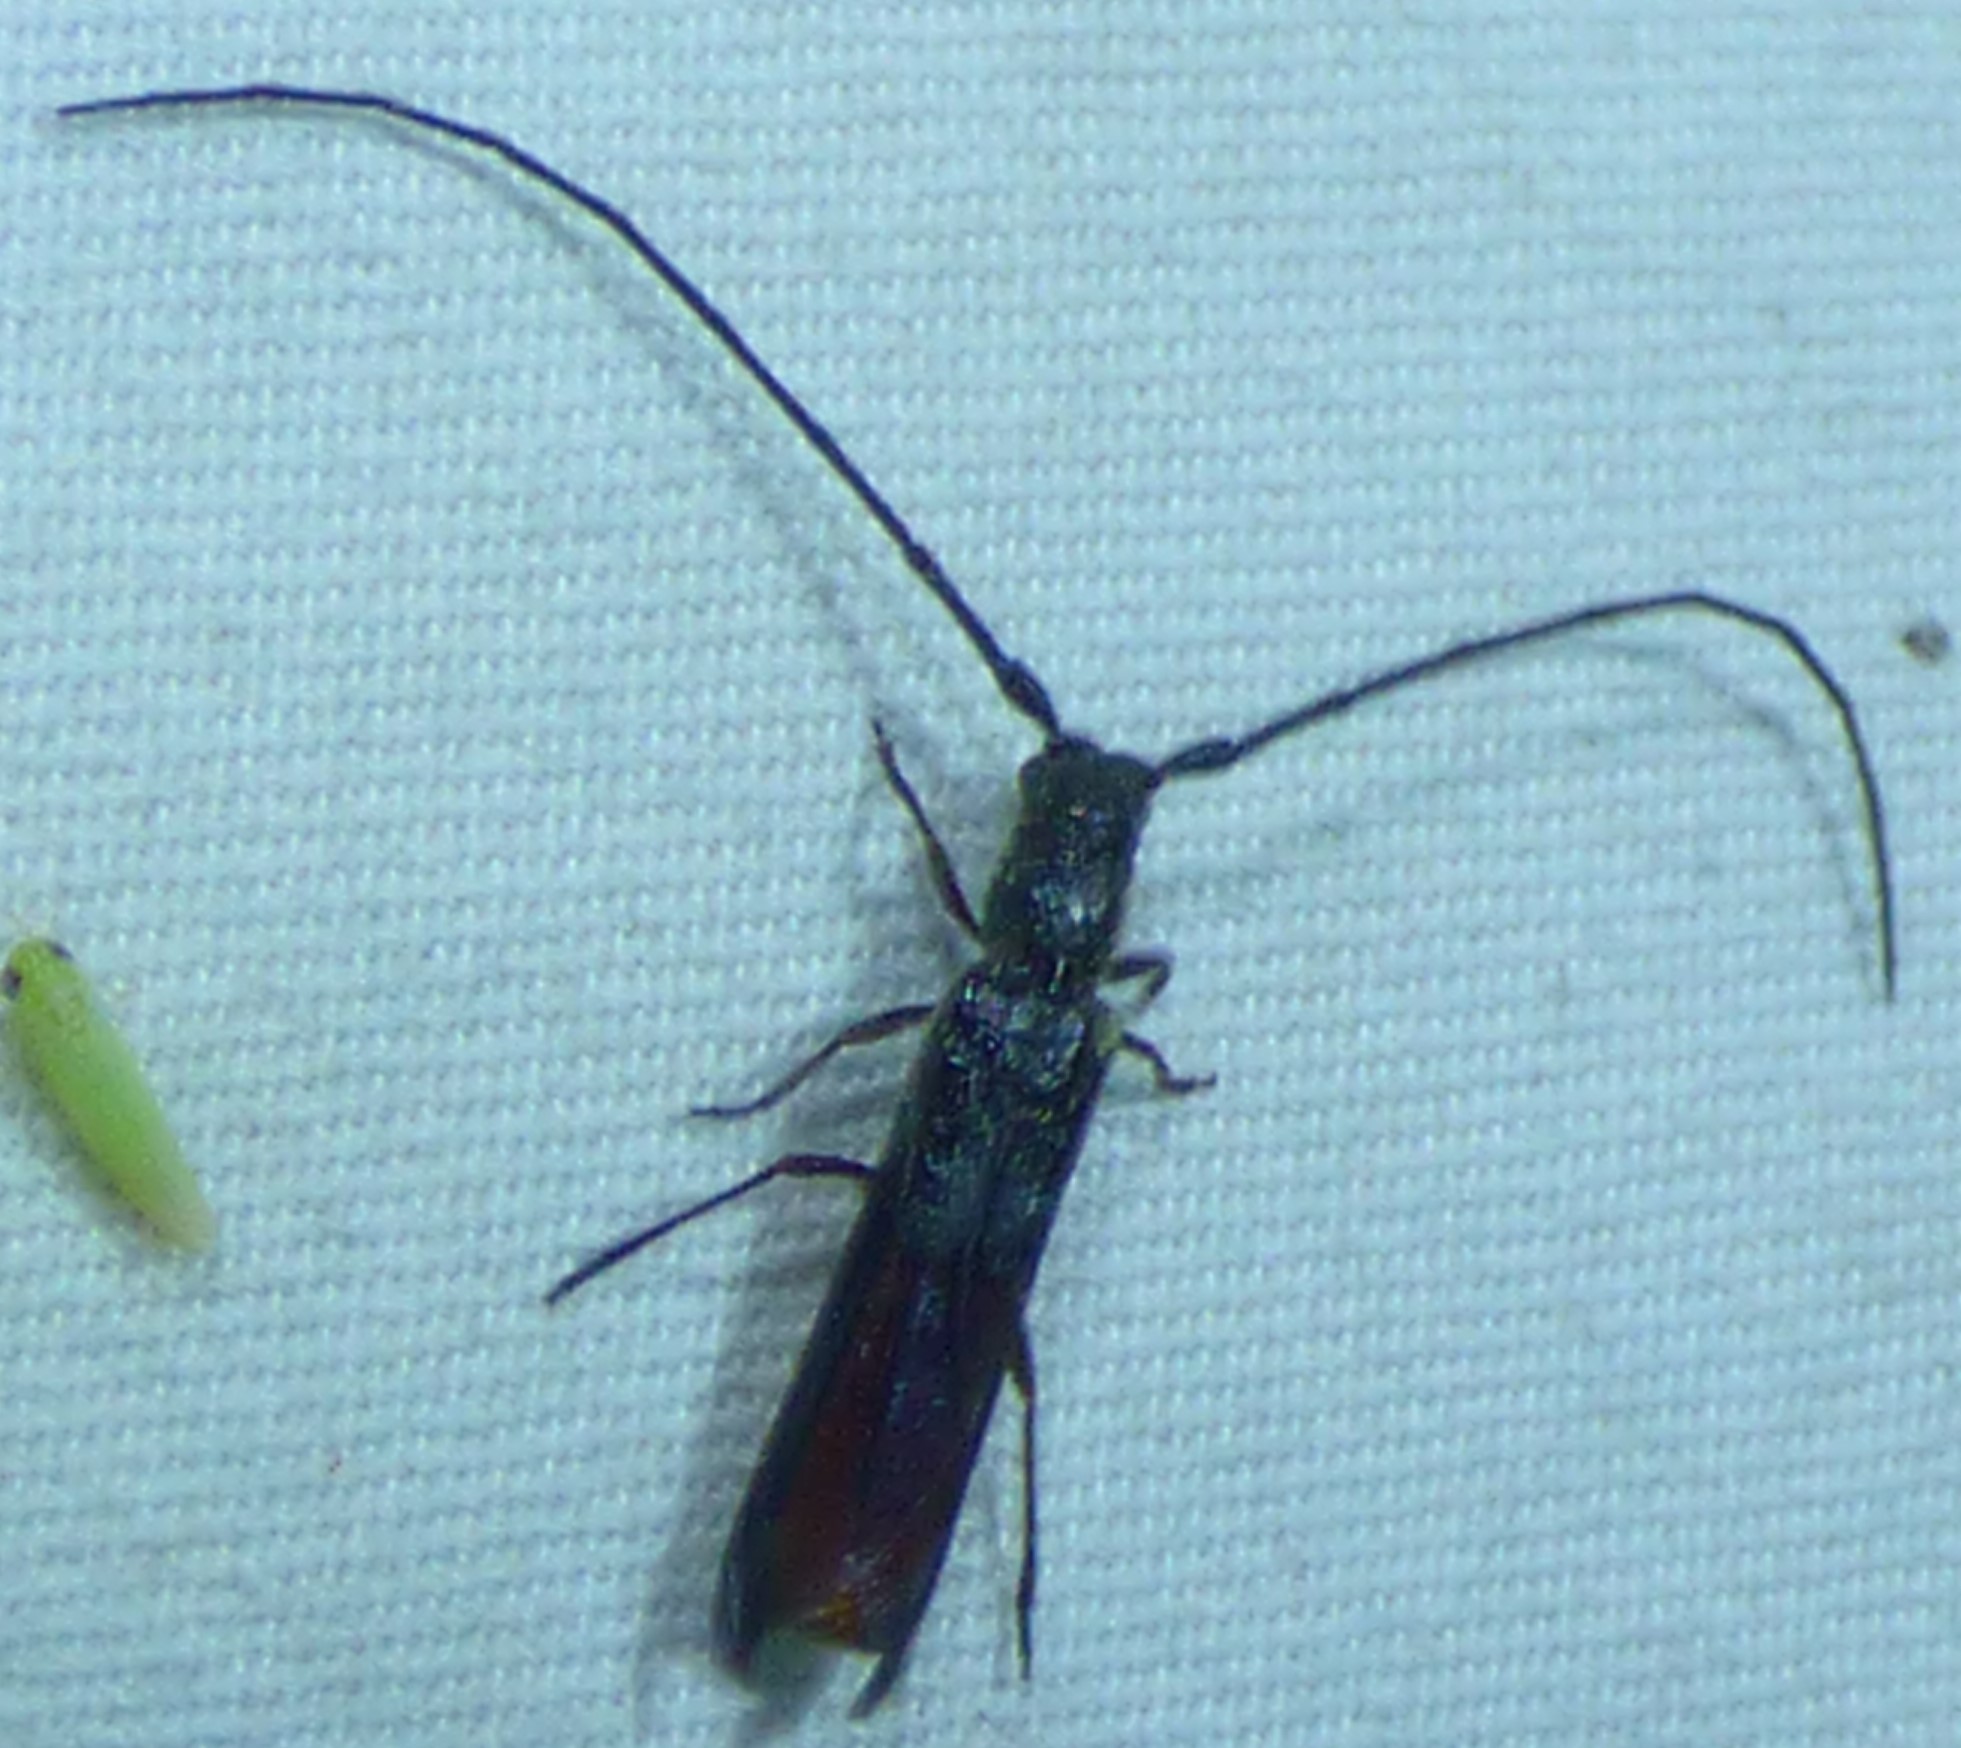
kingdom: Animalia
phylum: Arthropoda
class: Insecta
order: Coleoptera
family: Cerambycidae
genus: Methia
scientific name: Methia
